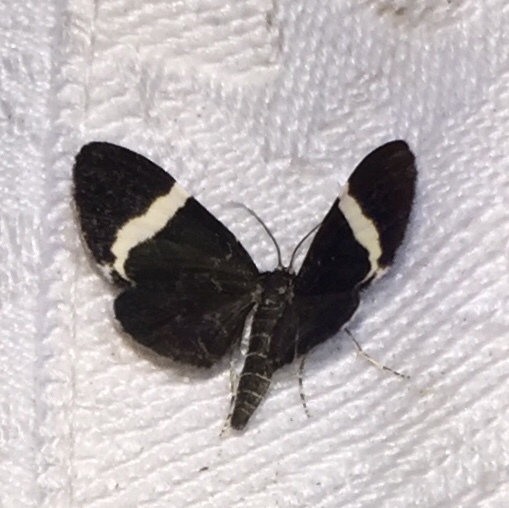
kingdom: Animalia
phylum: Arthropoda
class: Insecta
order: Lepidoptera
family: Geometridae
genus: Trichodezia
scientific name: Trichodezia albovittata
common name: White striped black
